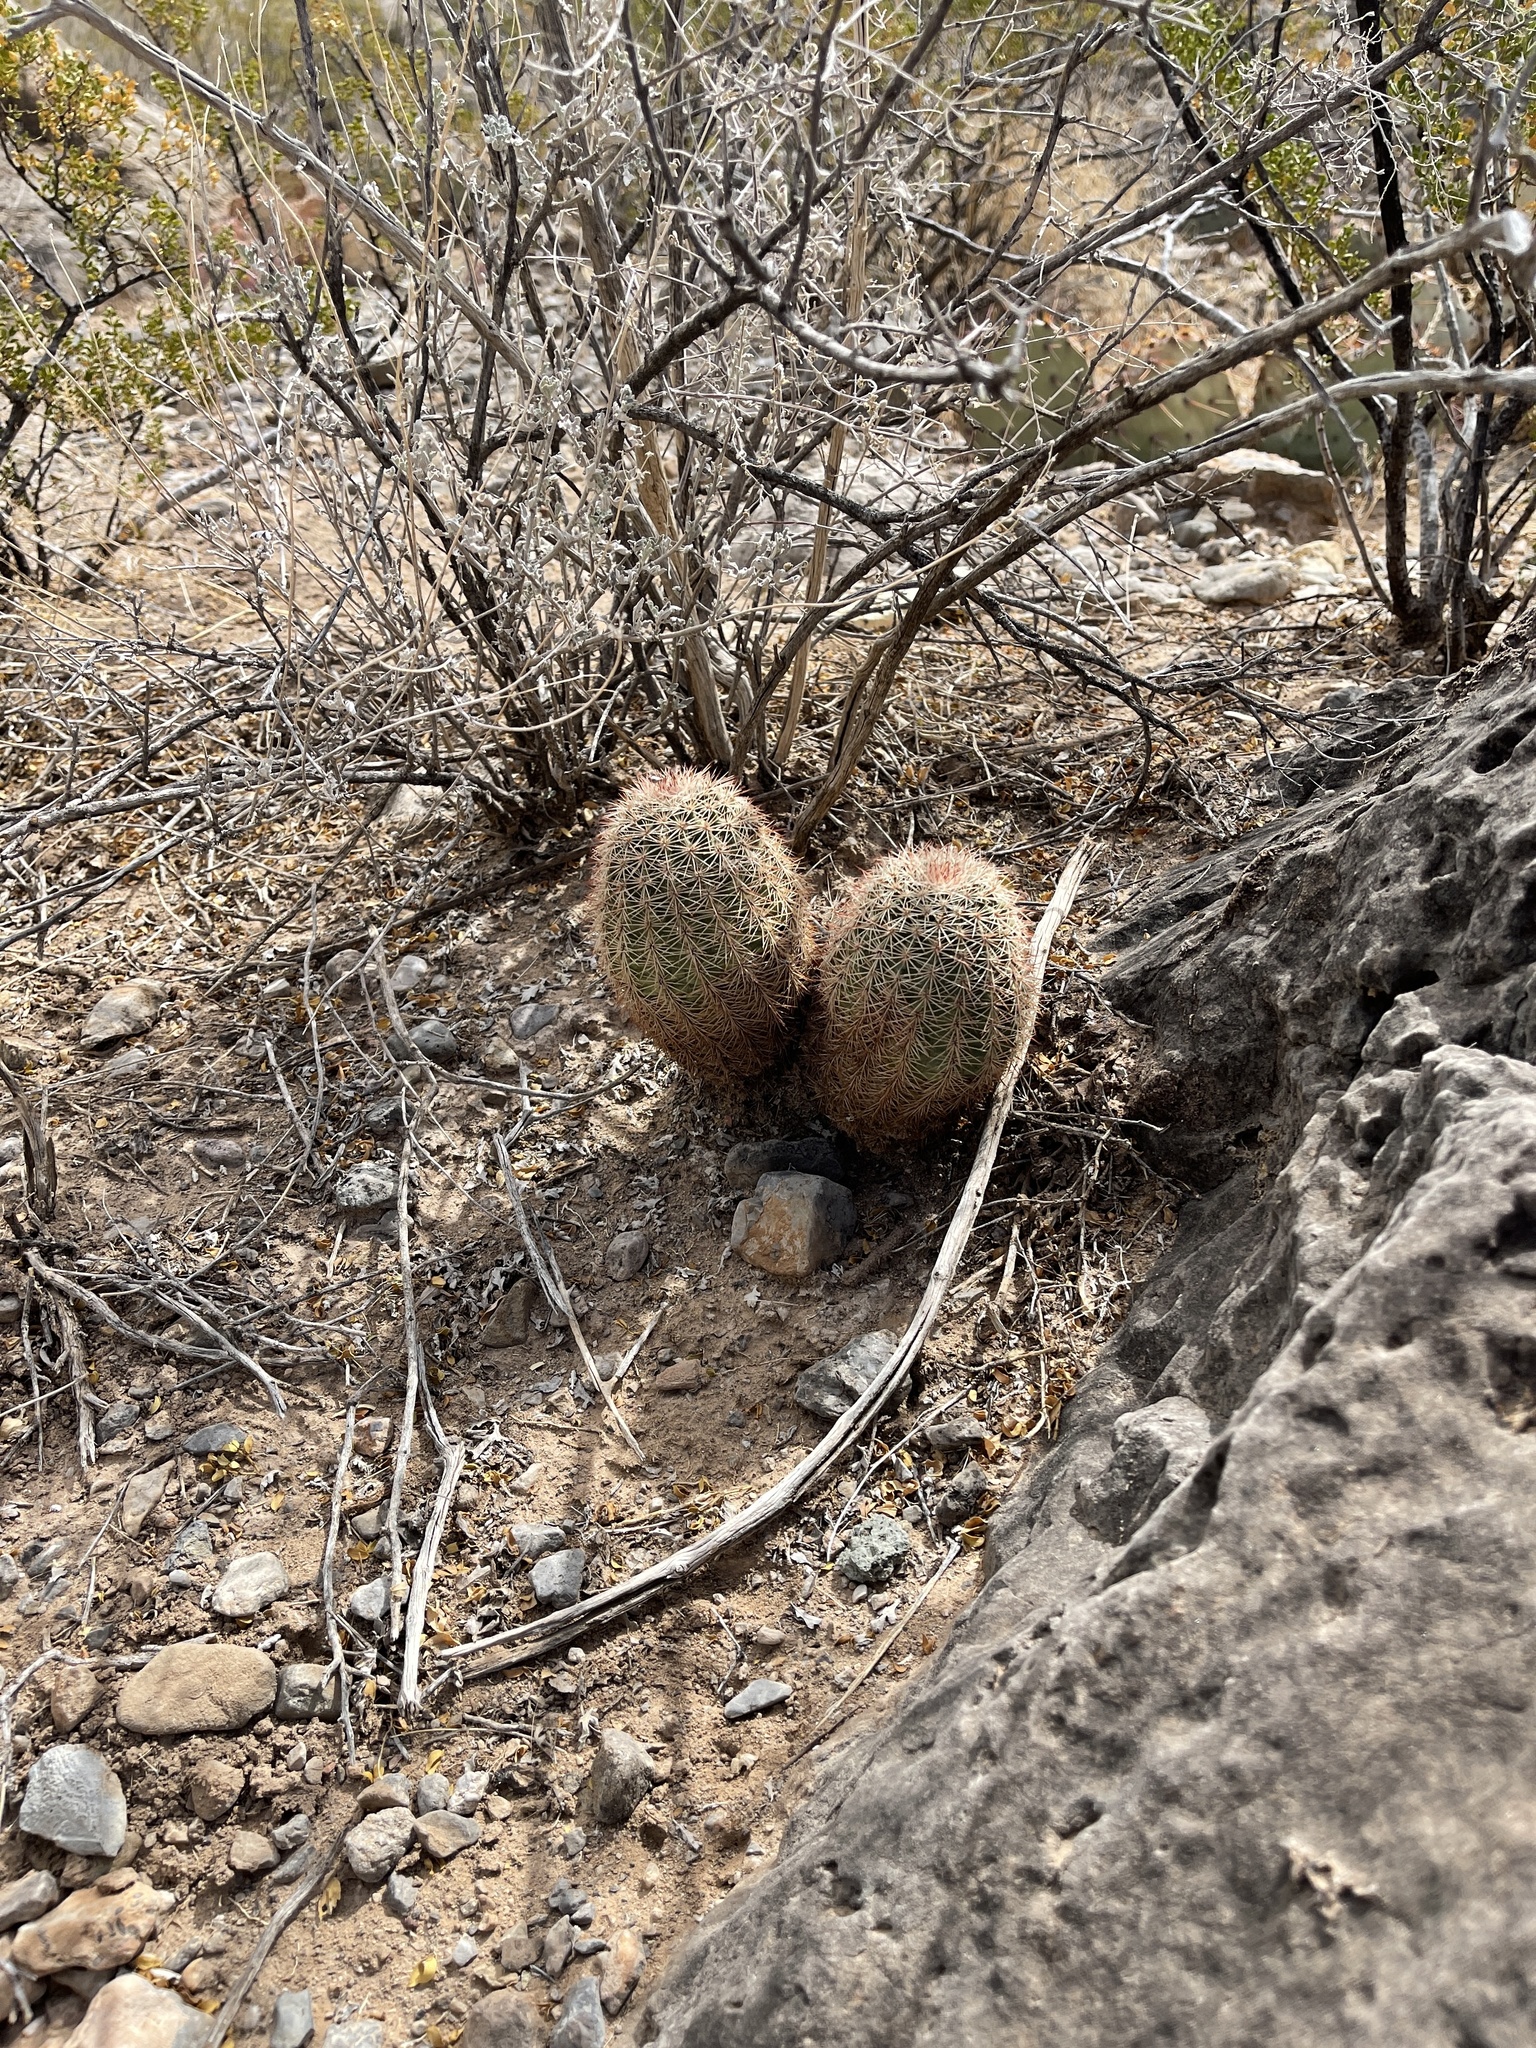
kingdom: Plantae
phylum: Tracheophyta
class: Magnoliopsida
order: Caryophyllales
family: Cactaceae
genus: Echinocereus
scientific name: Echinocereus dasyacanthus
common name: Spiny hedgehog cactus
